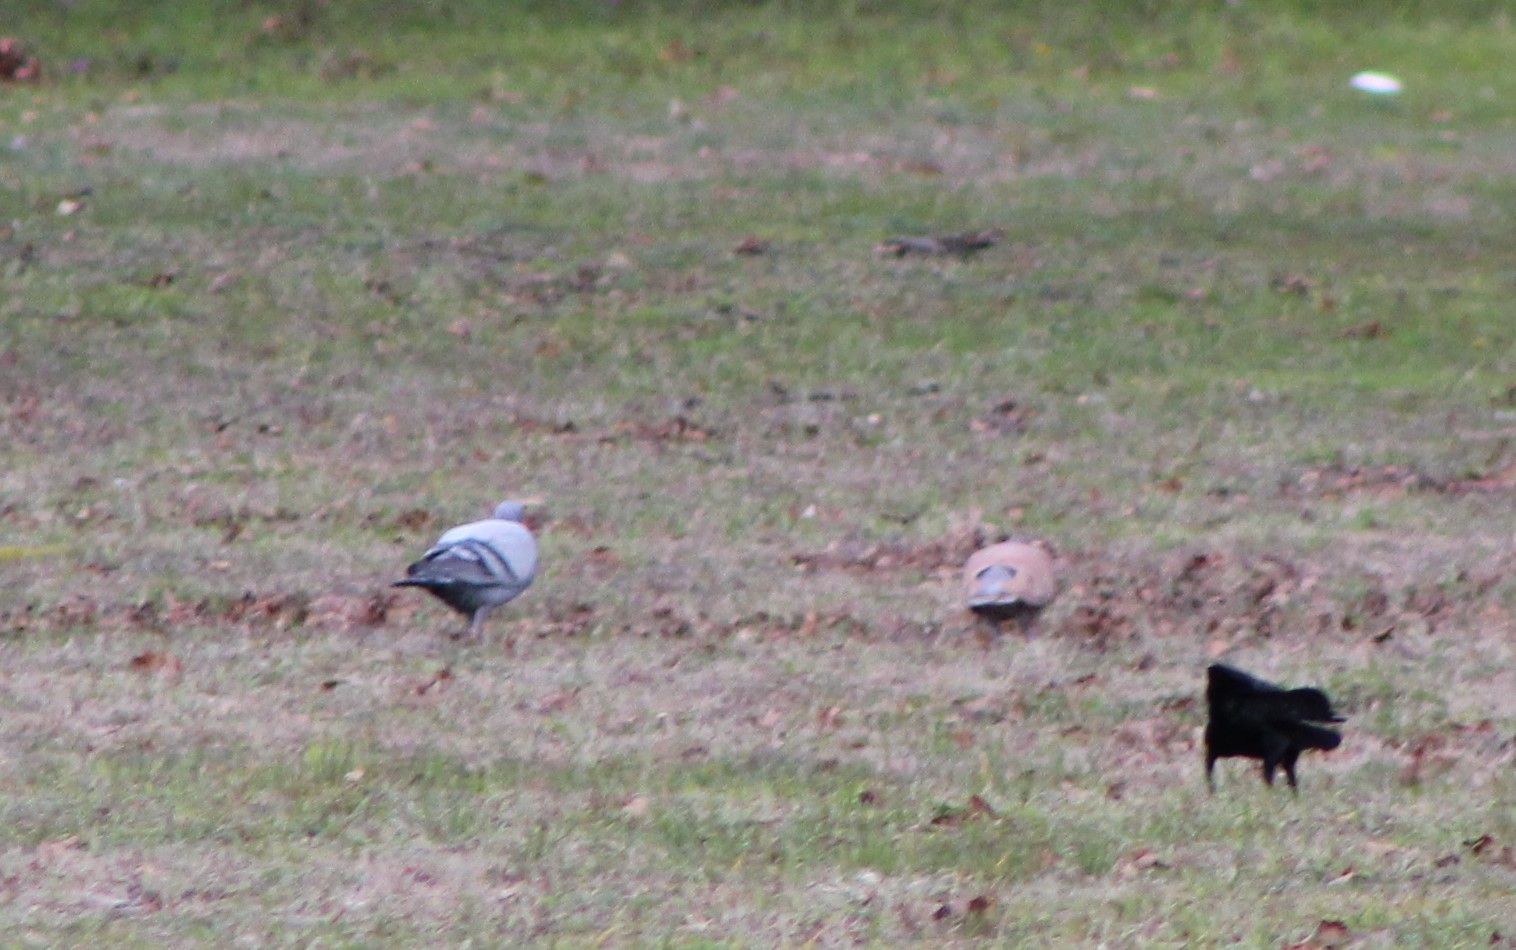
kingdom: Animalia
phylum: Chordata
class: Aves
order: Columbiformes
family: Columbidae
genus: Columba
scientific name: Columba livia
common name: Rock pigeon
